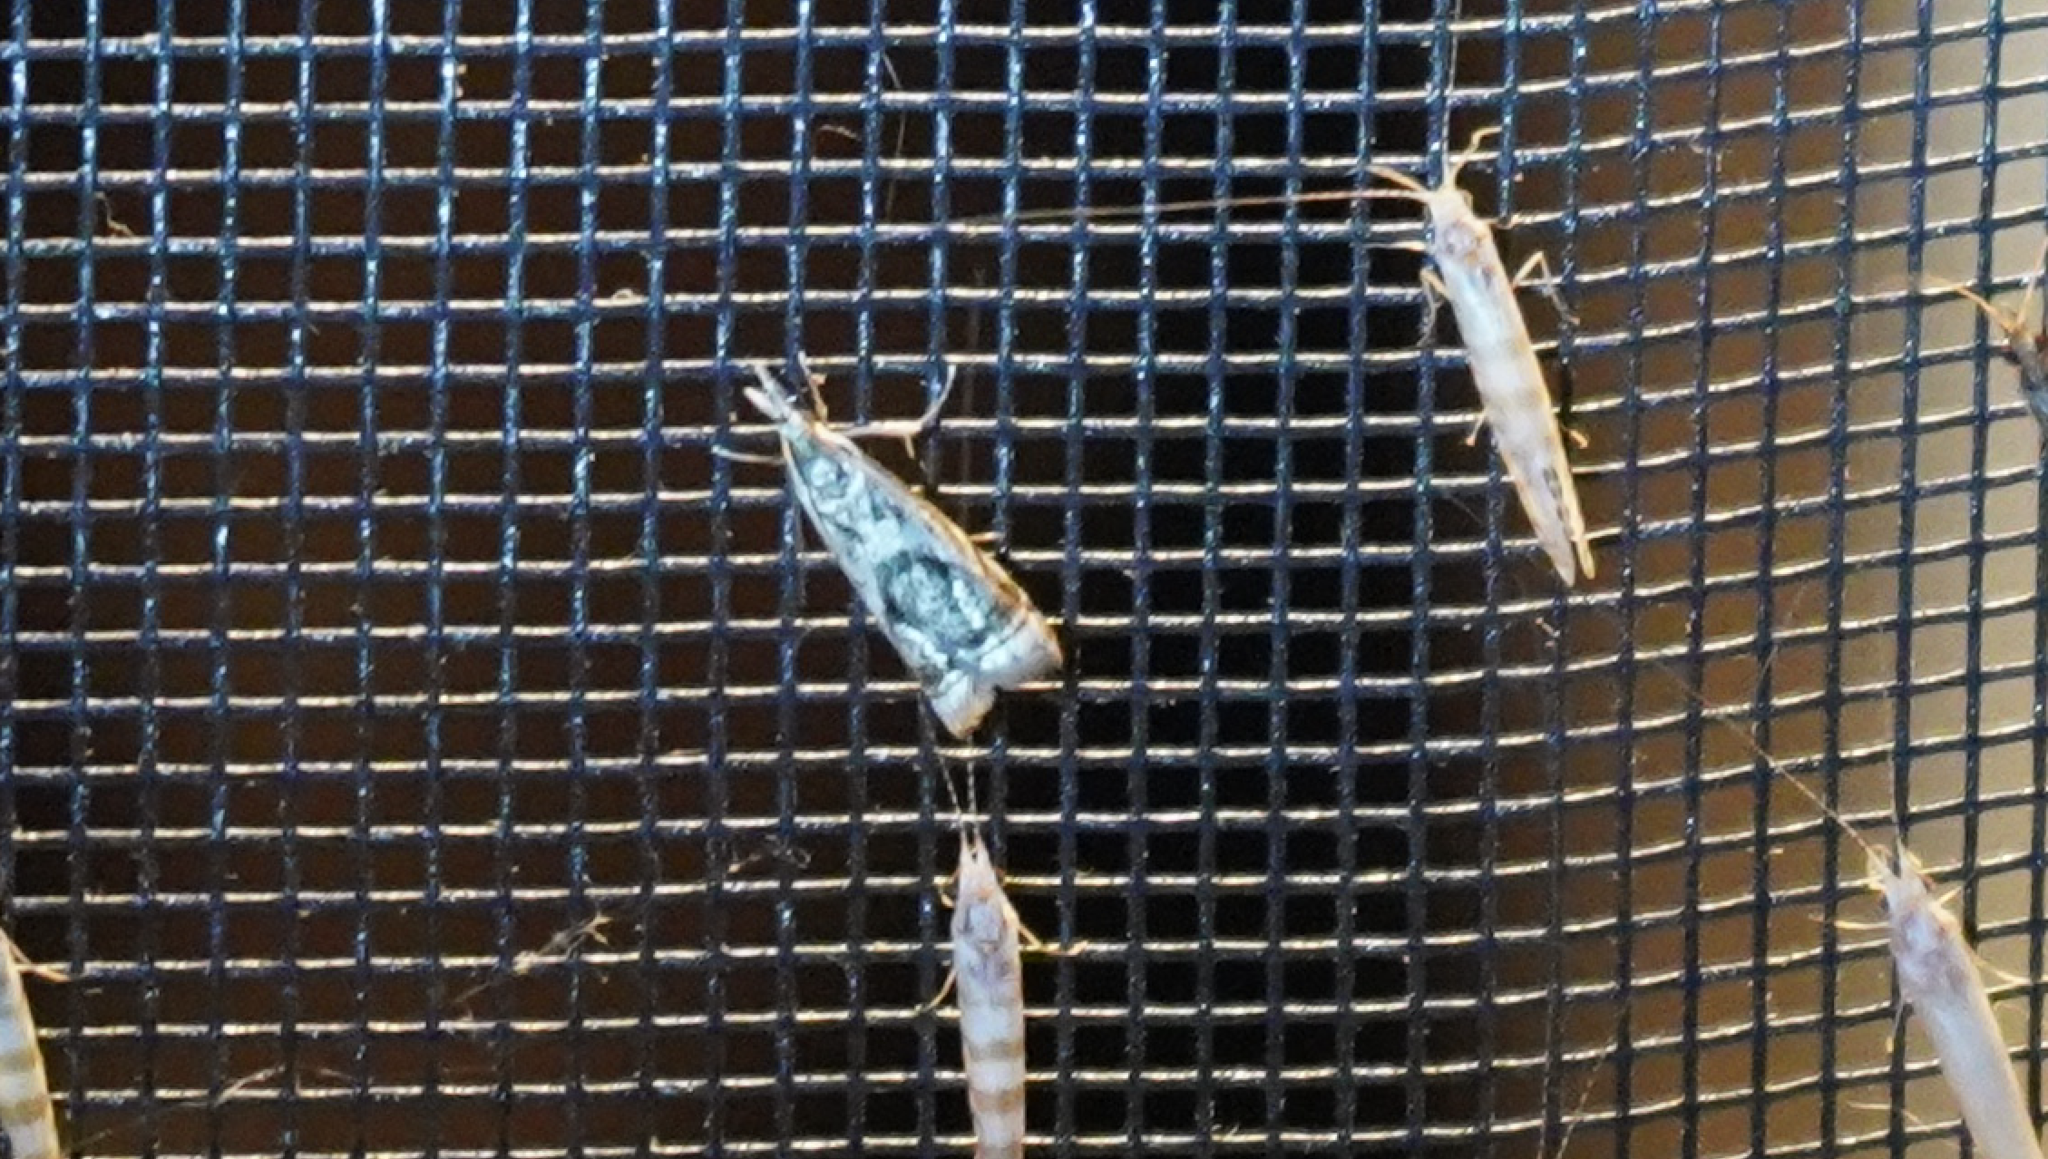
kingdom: Animalia
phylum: Arthropoda
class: Insecta
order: Lepidoptera
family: Crambidae
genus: Microcrambus
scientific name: Microcrambus elegans
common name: Elegant grass-veneer
